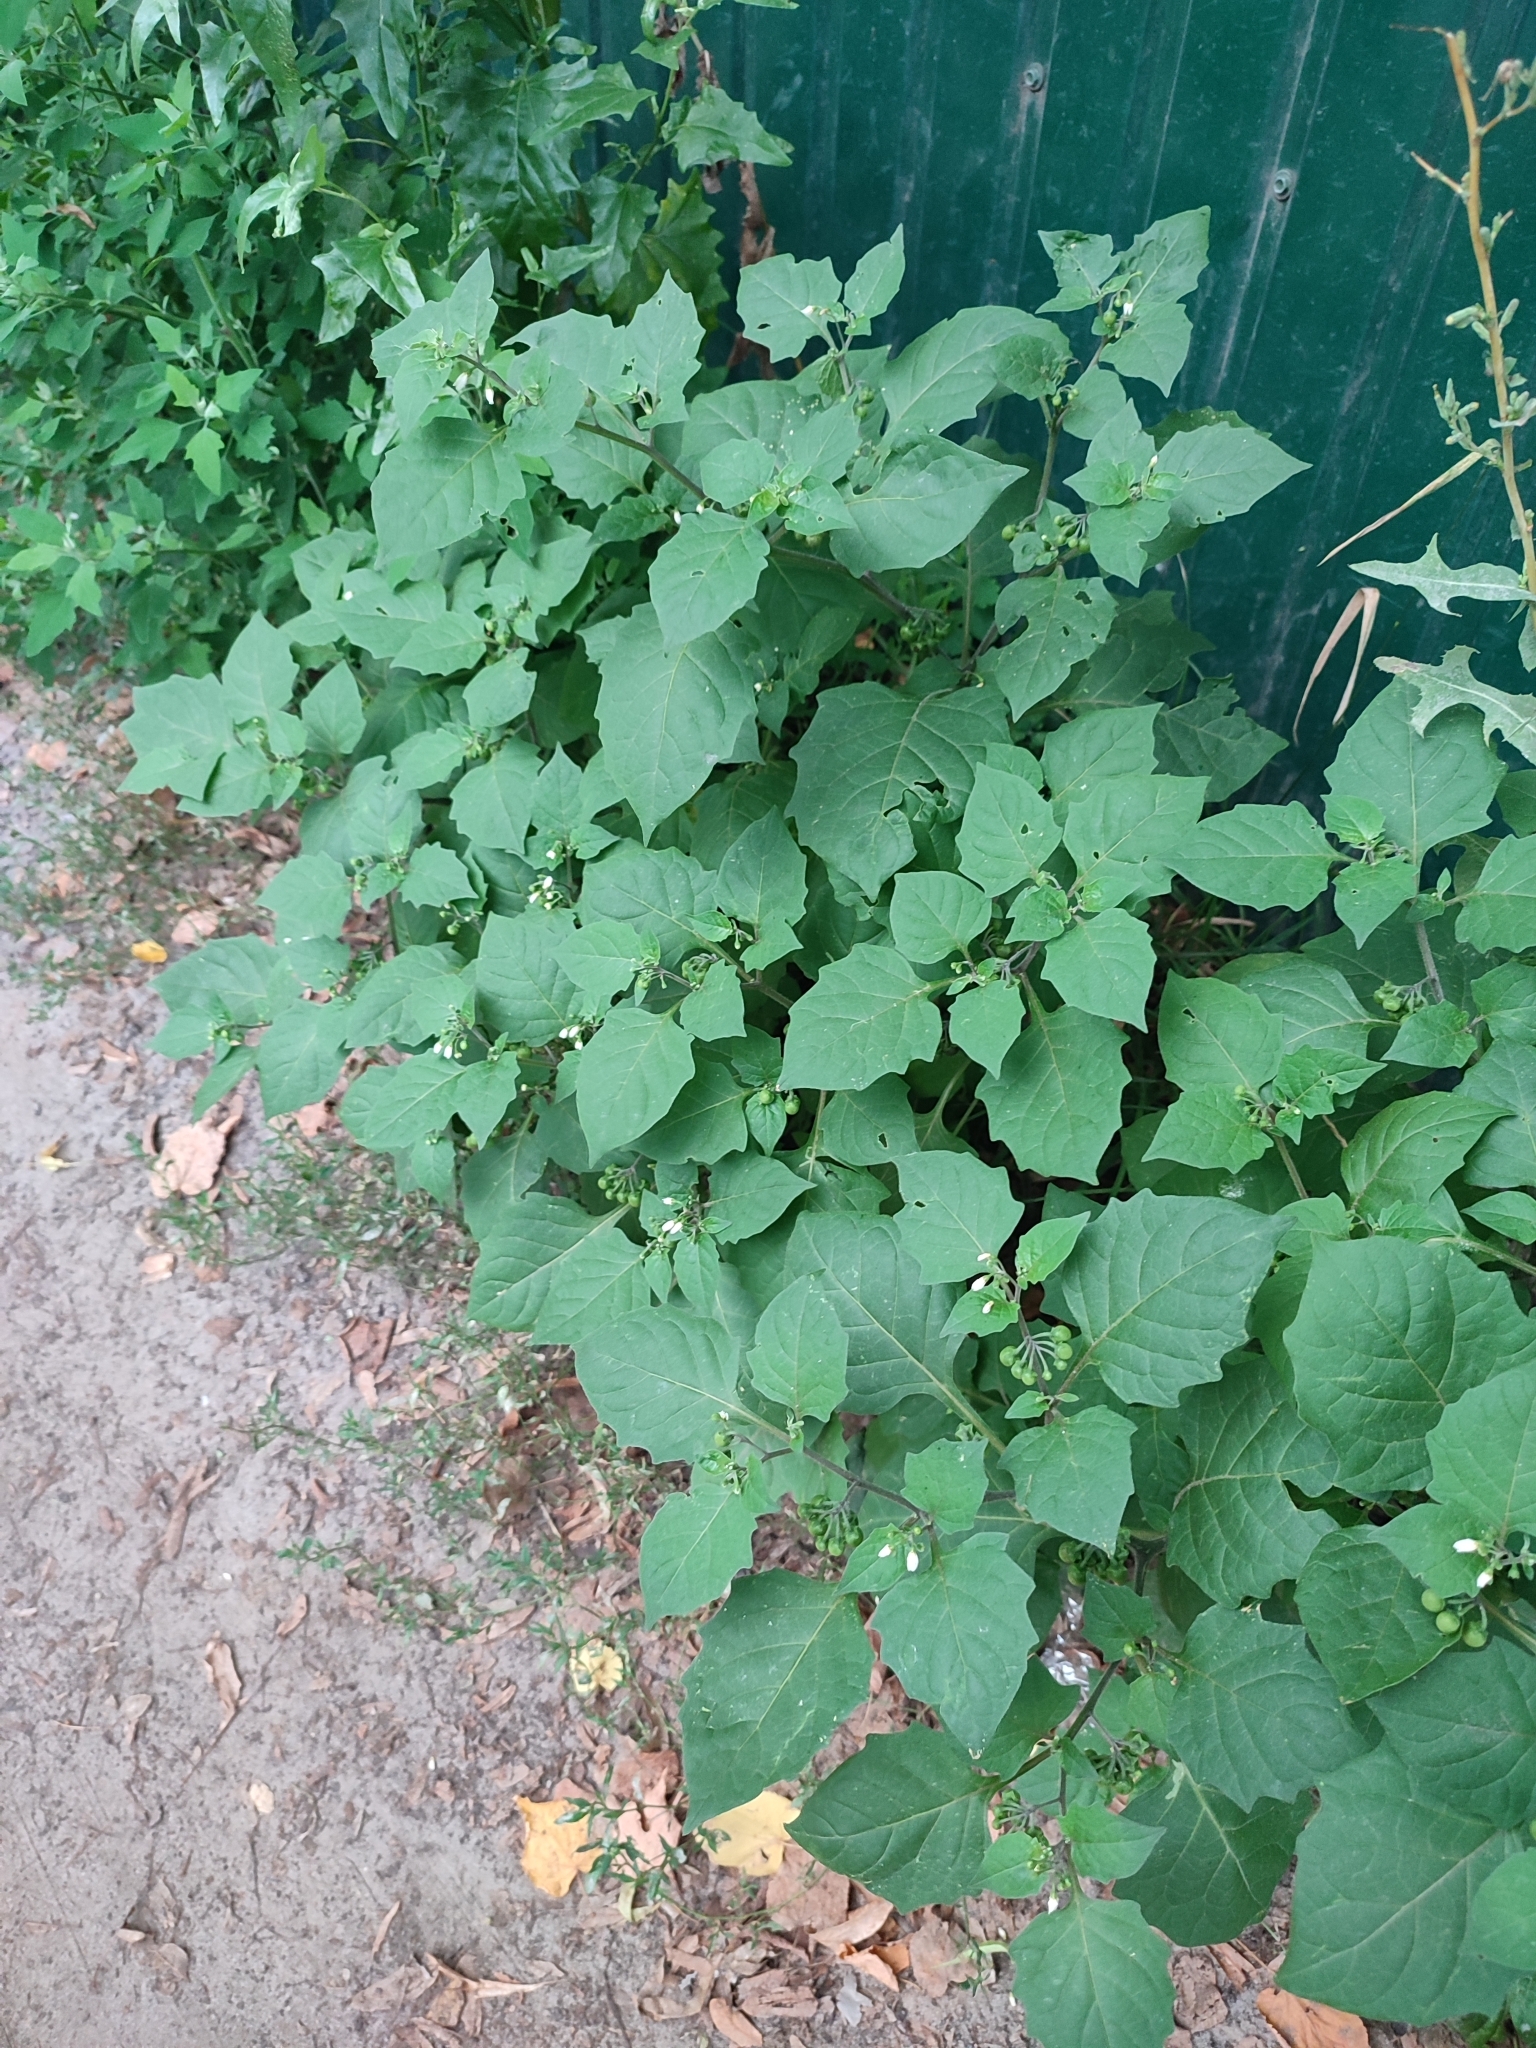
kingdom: Plantae
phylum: Tracheophyta
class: Magnoliopsida
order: Solanales
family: Solanaceae
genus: Solanum
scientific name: Solanum nigrum
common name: Black nightshade
